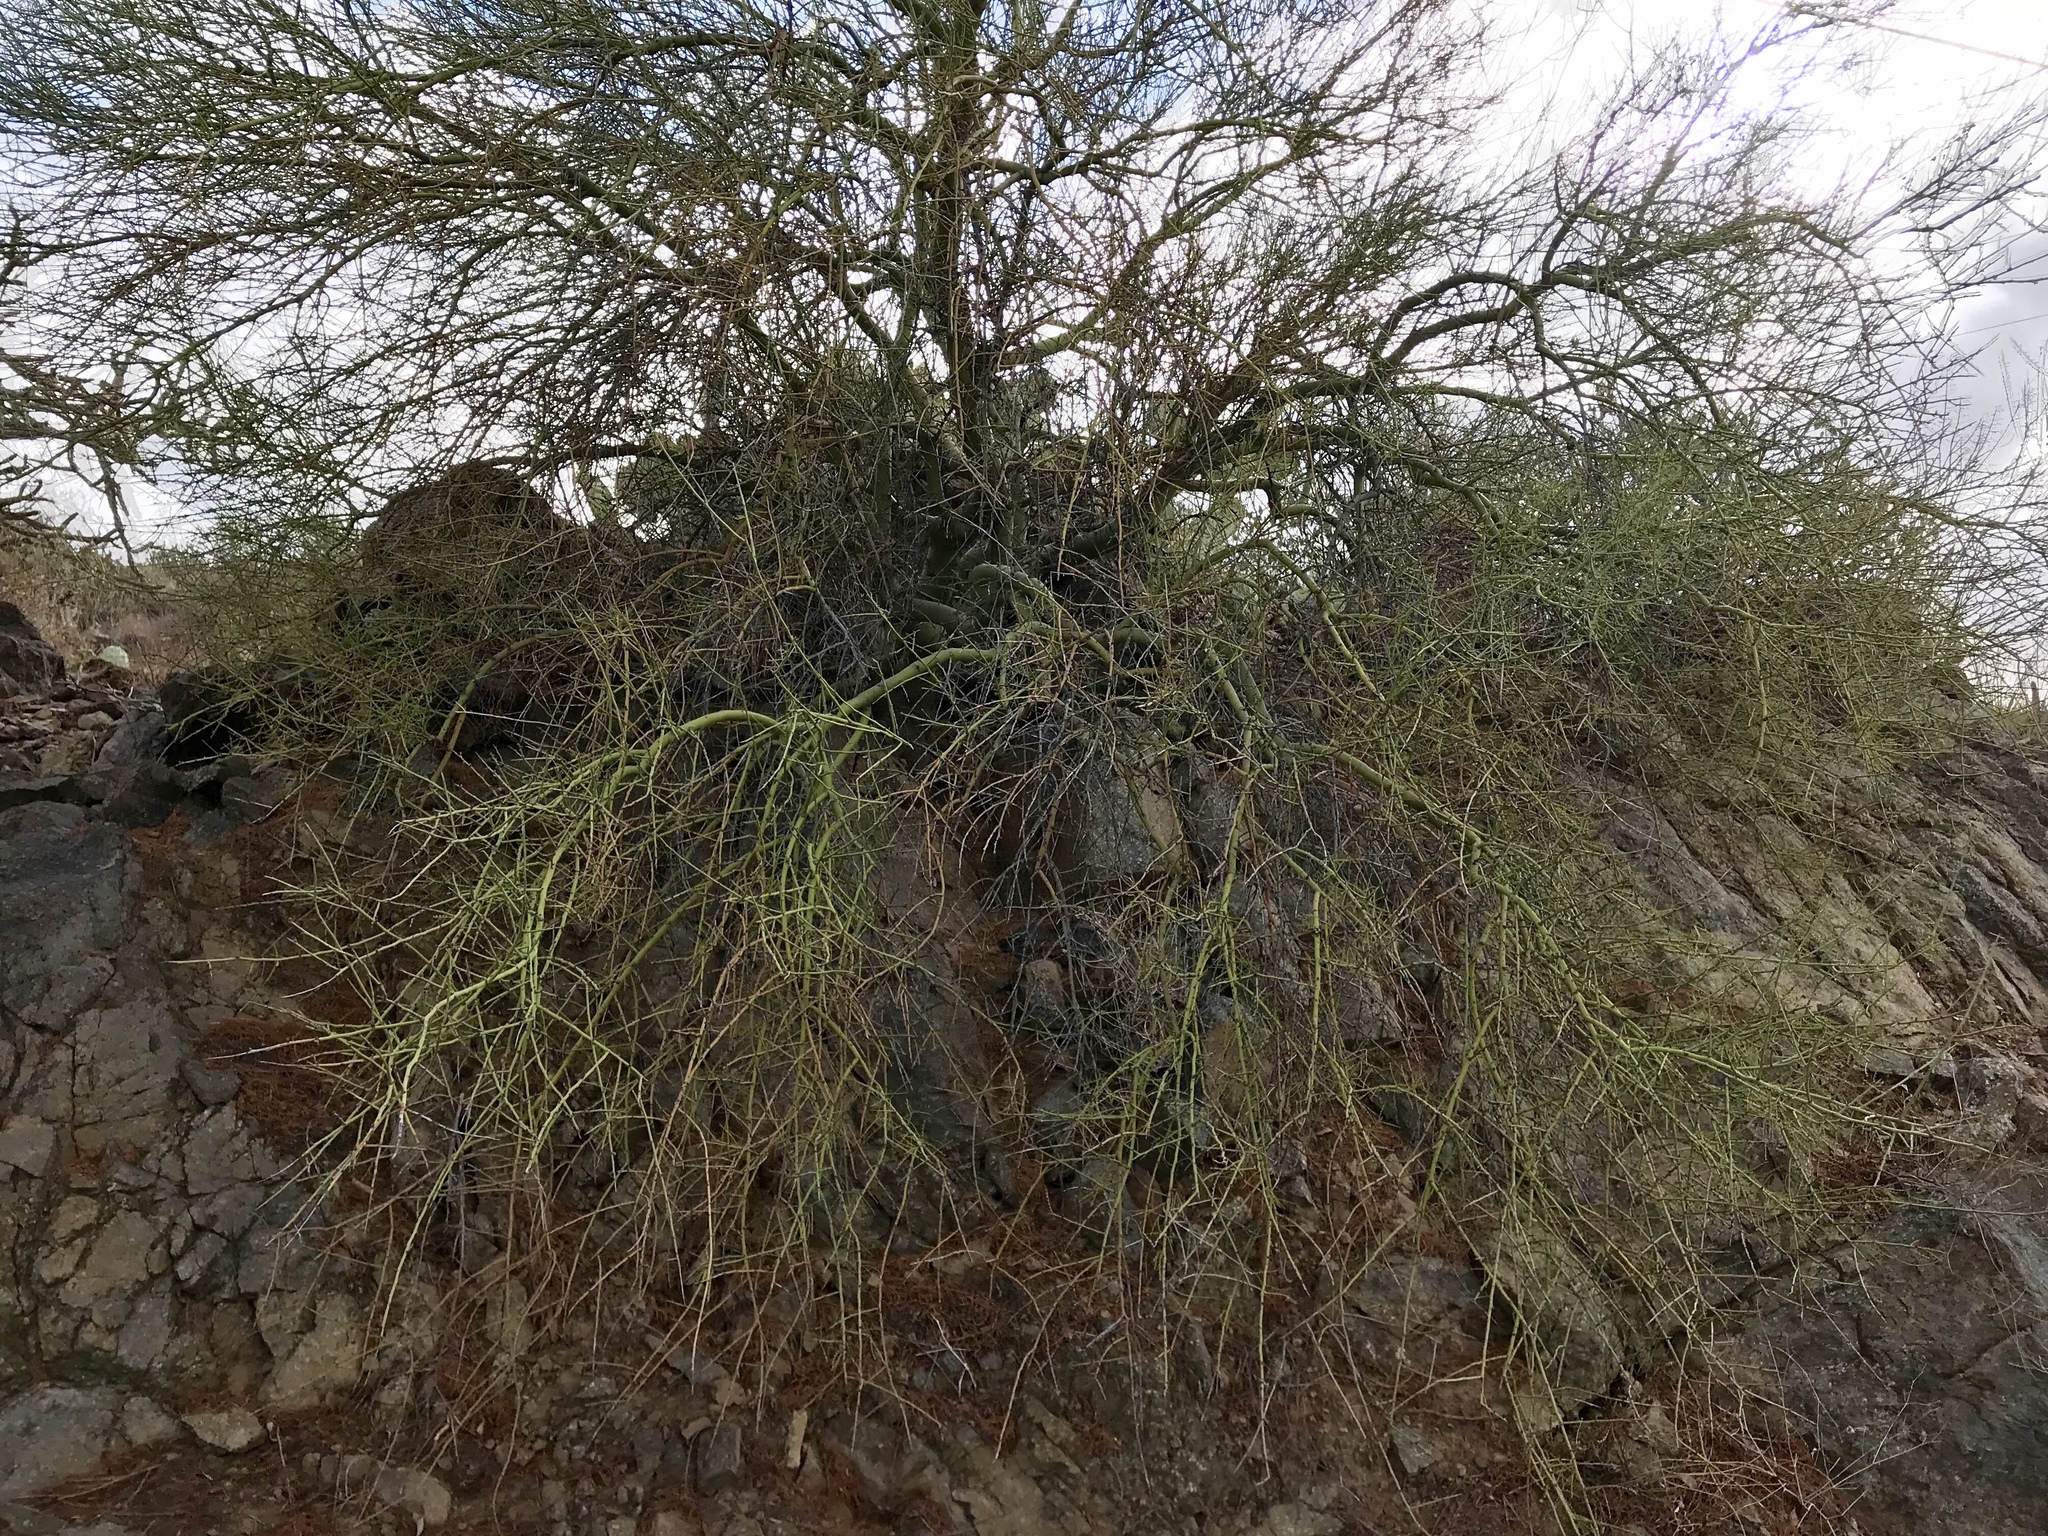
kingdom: Plantae
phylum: Tracheophyta
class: Magnoliopsida
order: Fabales
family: Fabaceae
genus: Parkinsonia
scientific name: Parkinsonia microphylla
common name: Yellow paloverde
